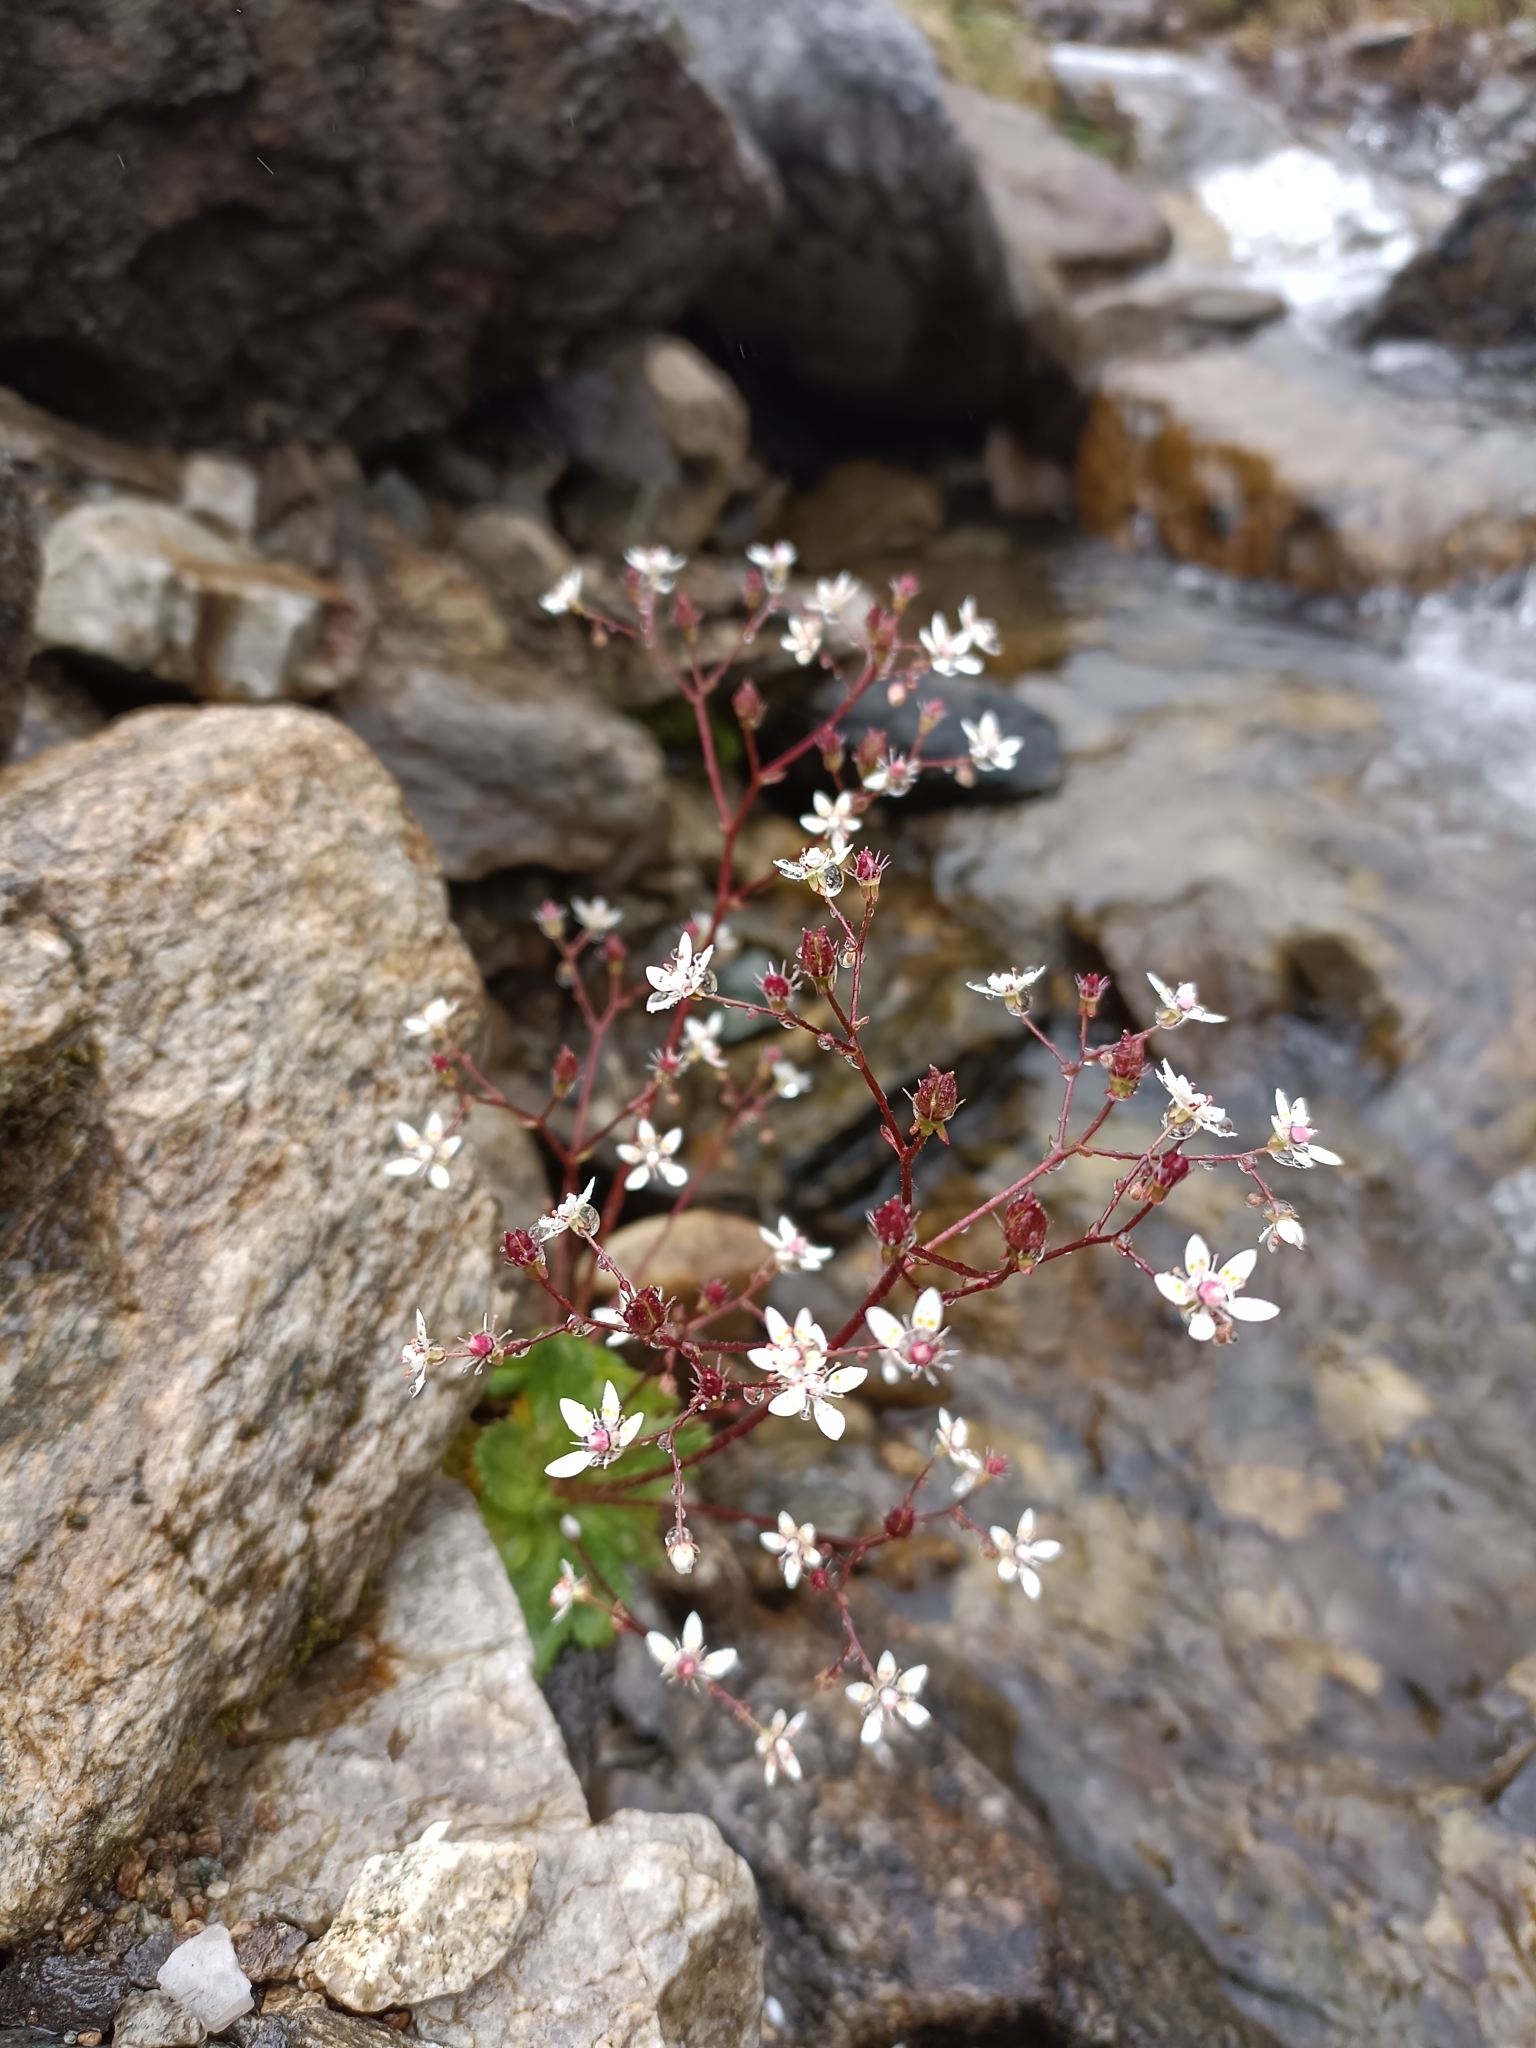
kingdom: Plantae
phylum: Tracheophyta
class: Magnoliopsida
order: Saxifragales
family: Saxifragaceae
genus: Micranthes
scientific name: Micranthes stellaris
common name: Starry saxifrage
